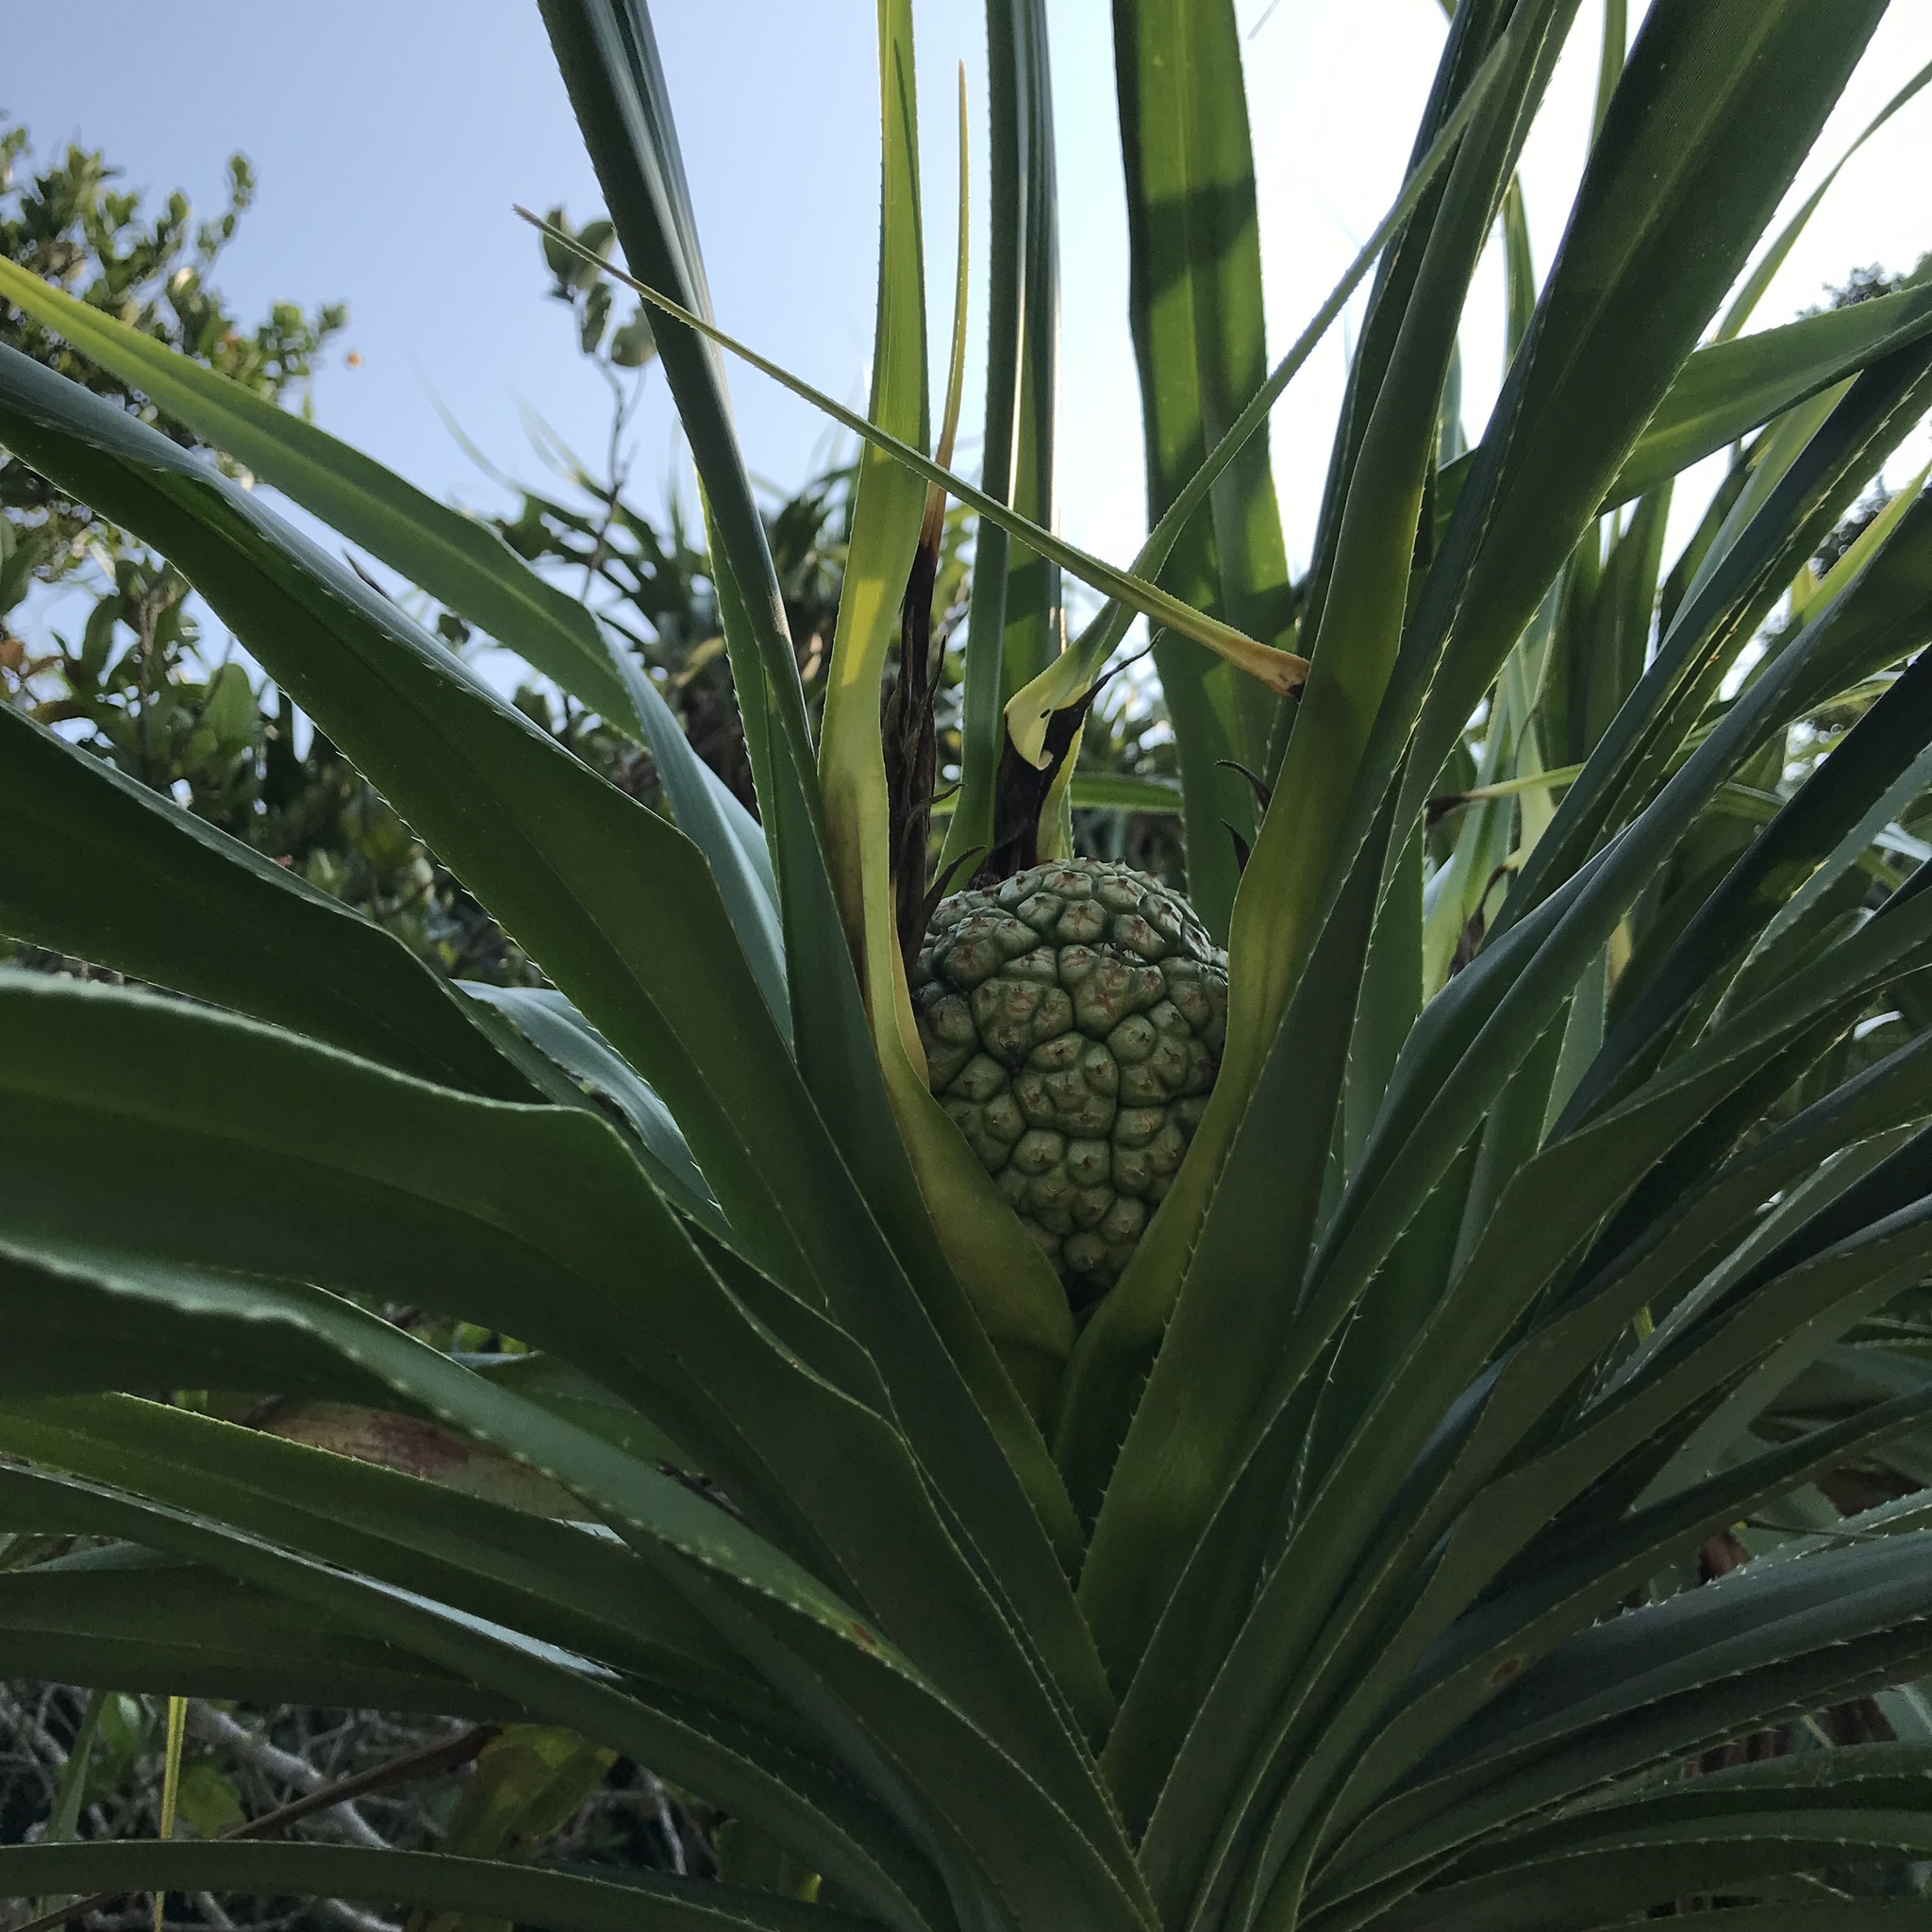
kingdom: Plantae
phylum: Tracheophyta
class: Liliopsida
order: Pandanales
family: Pandanaceae
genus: Pandanus
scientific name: Pandanus tectorius
